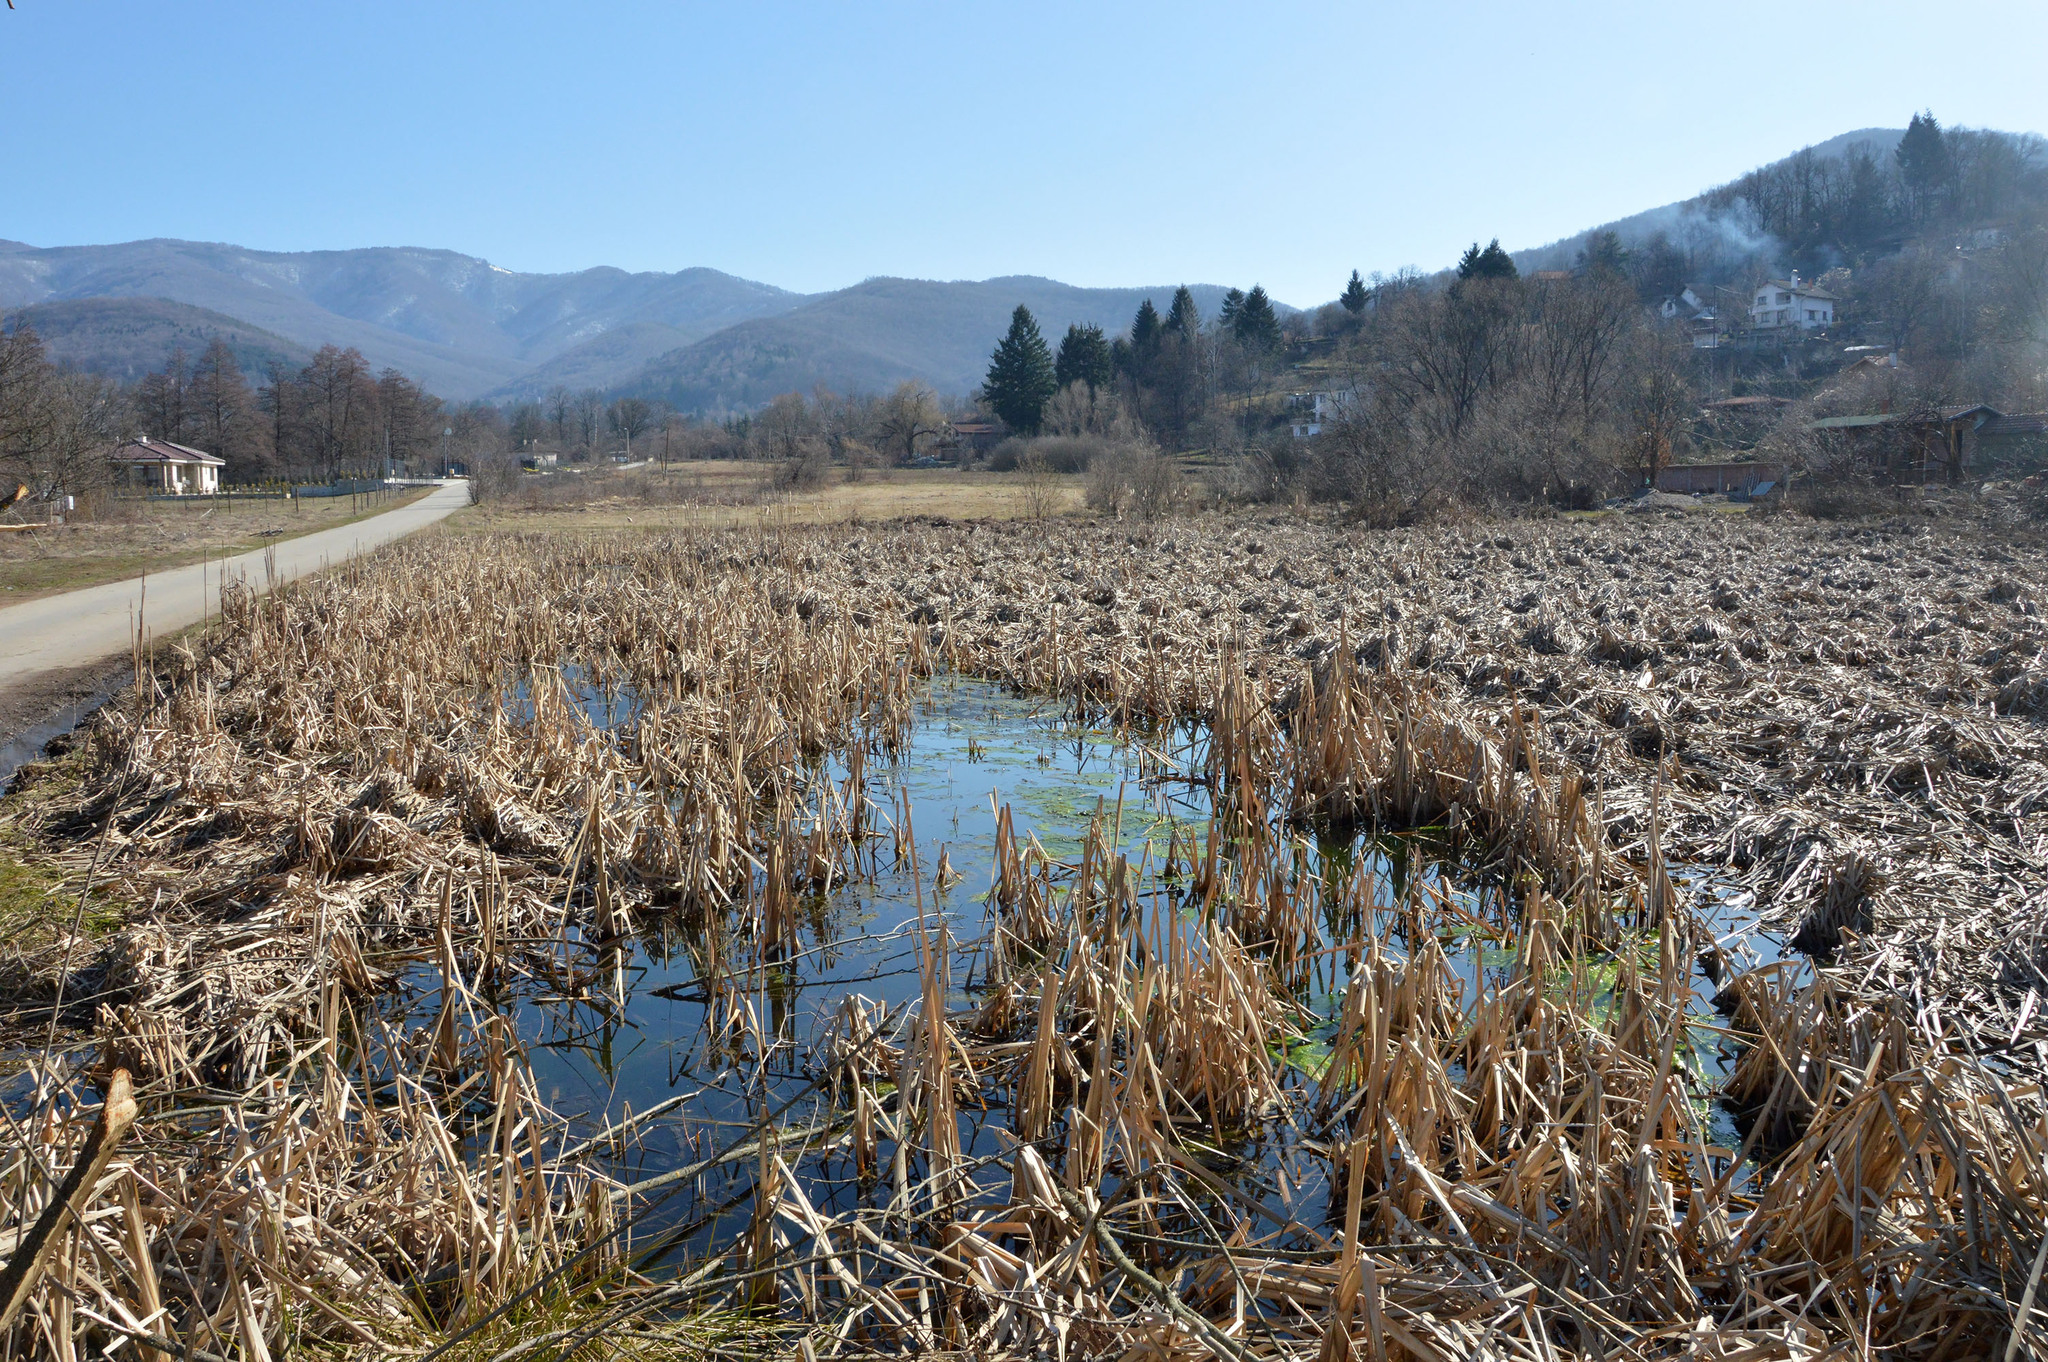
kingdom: Animalia
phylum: Chordata
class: Amphibia
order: Anura
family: Ranidae
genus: Rana
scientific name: Rana temporaria
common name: Common frog
